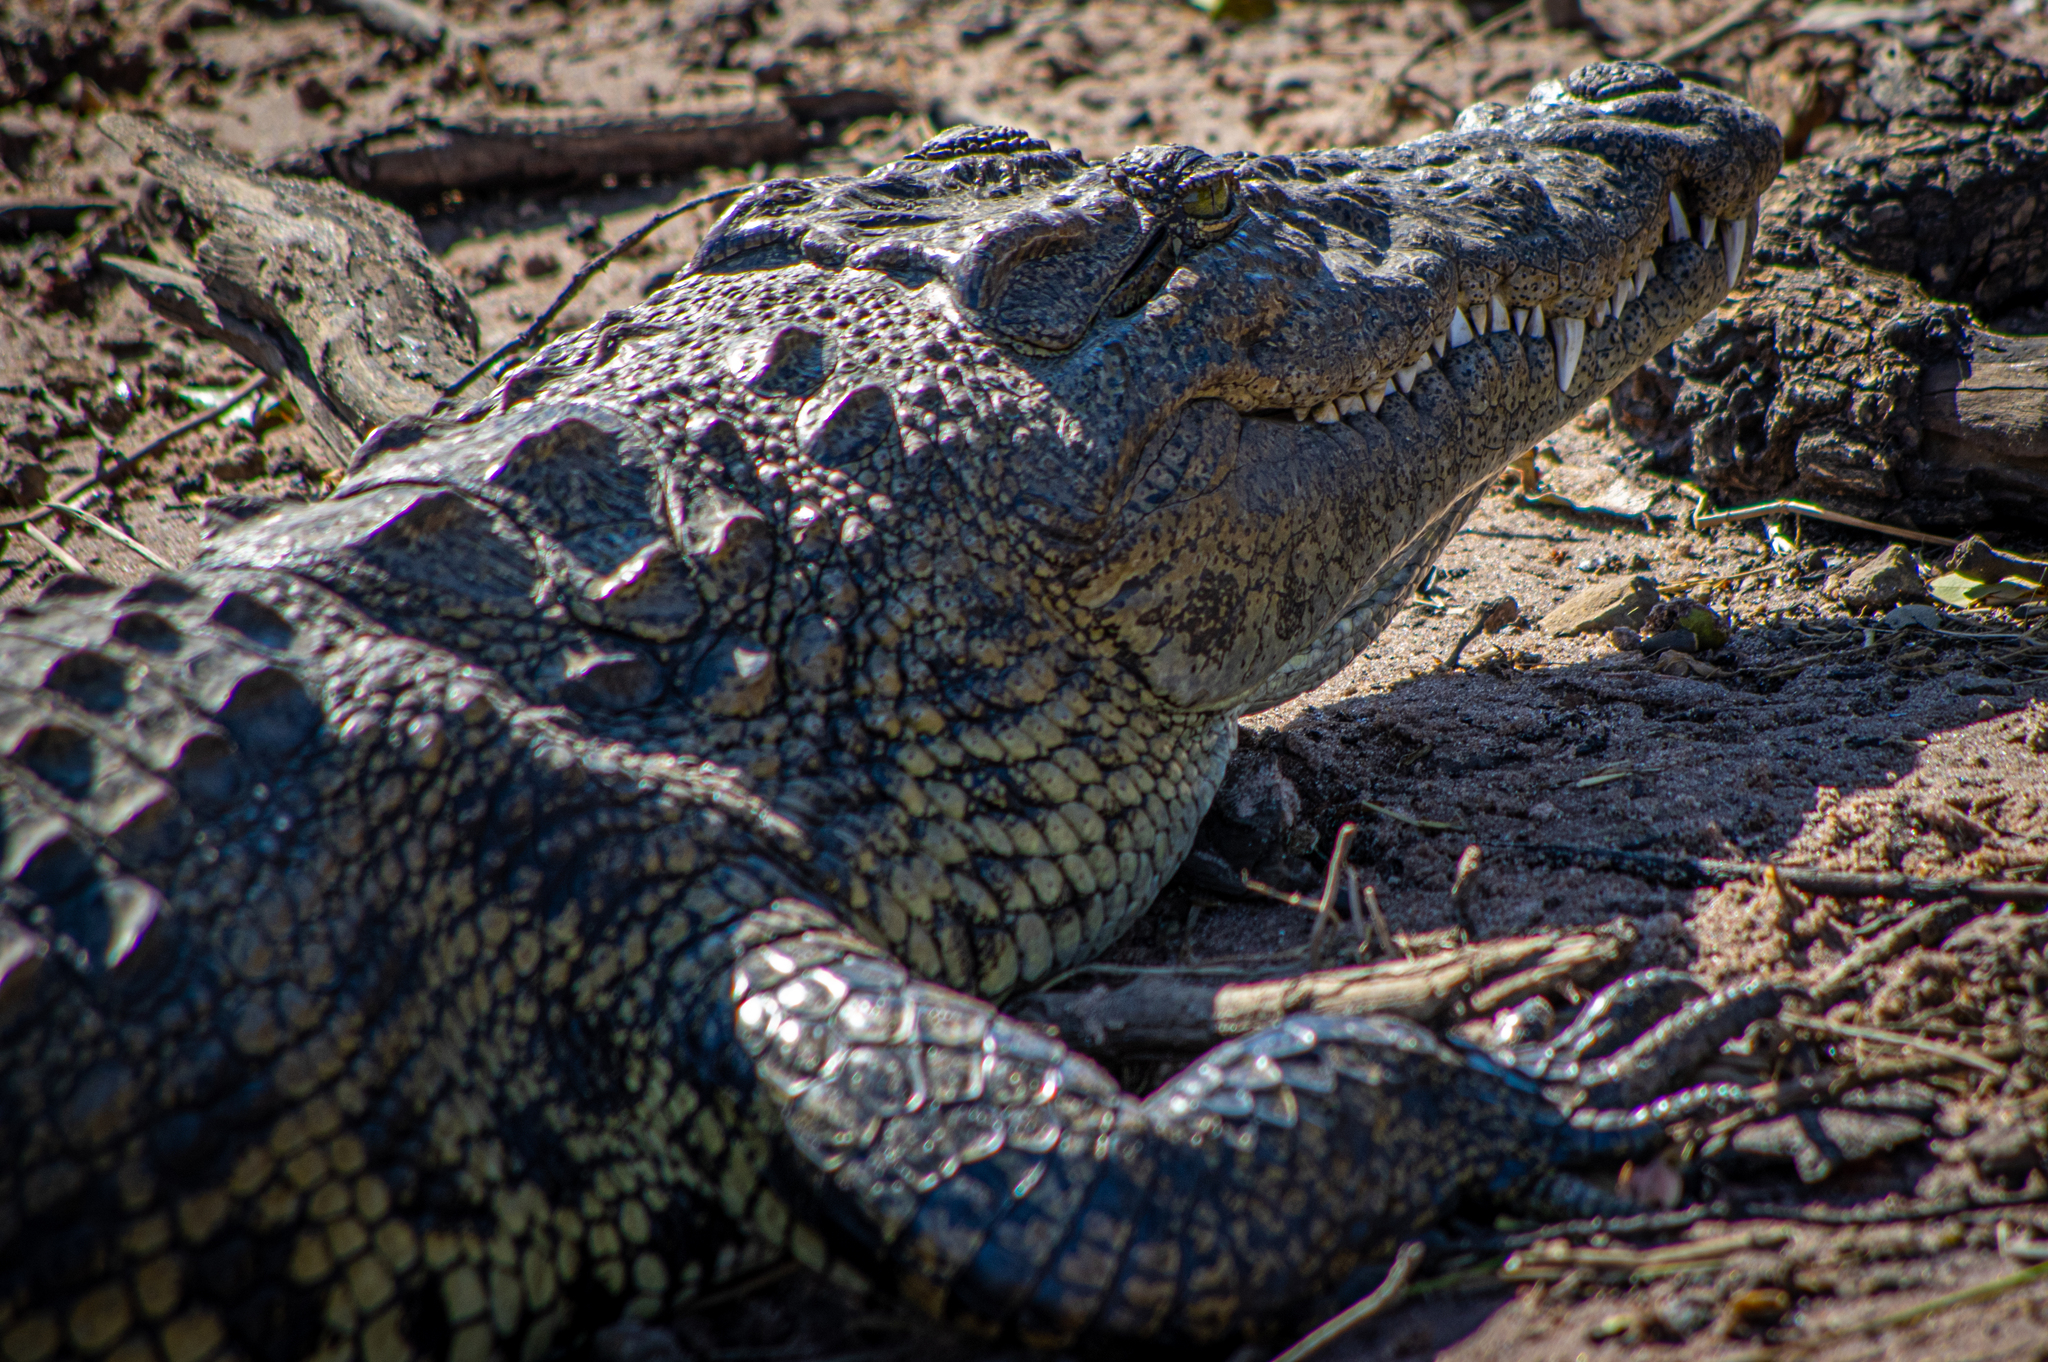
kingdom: Animalia
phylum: Chordata
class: Crocodylia
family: Crocodylidae
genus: Crocodylus
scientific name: Crocodylus niloticus
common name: Nile crocodile
